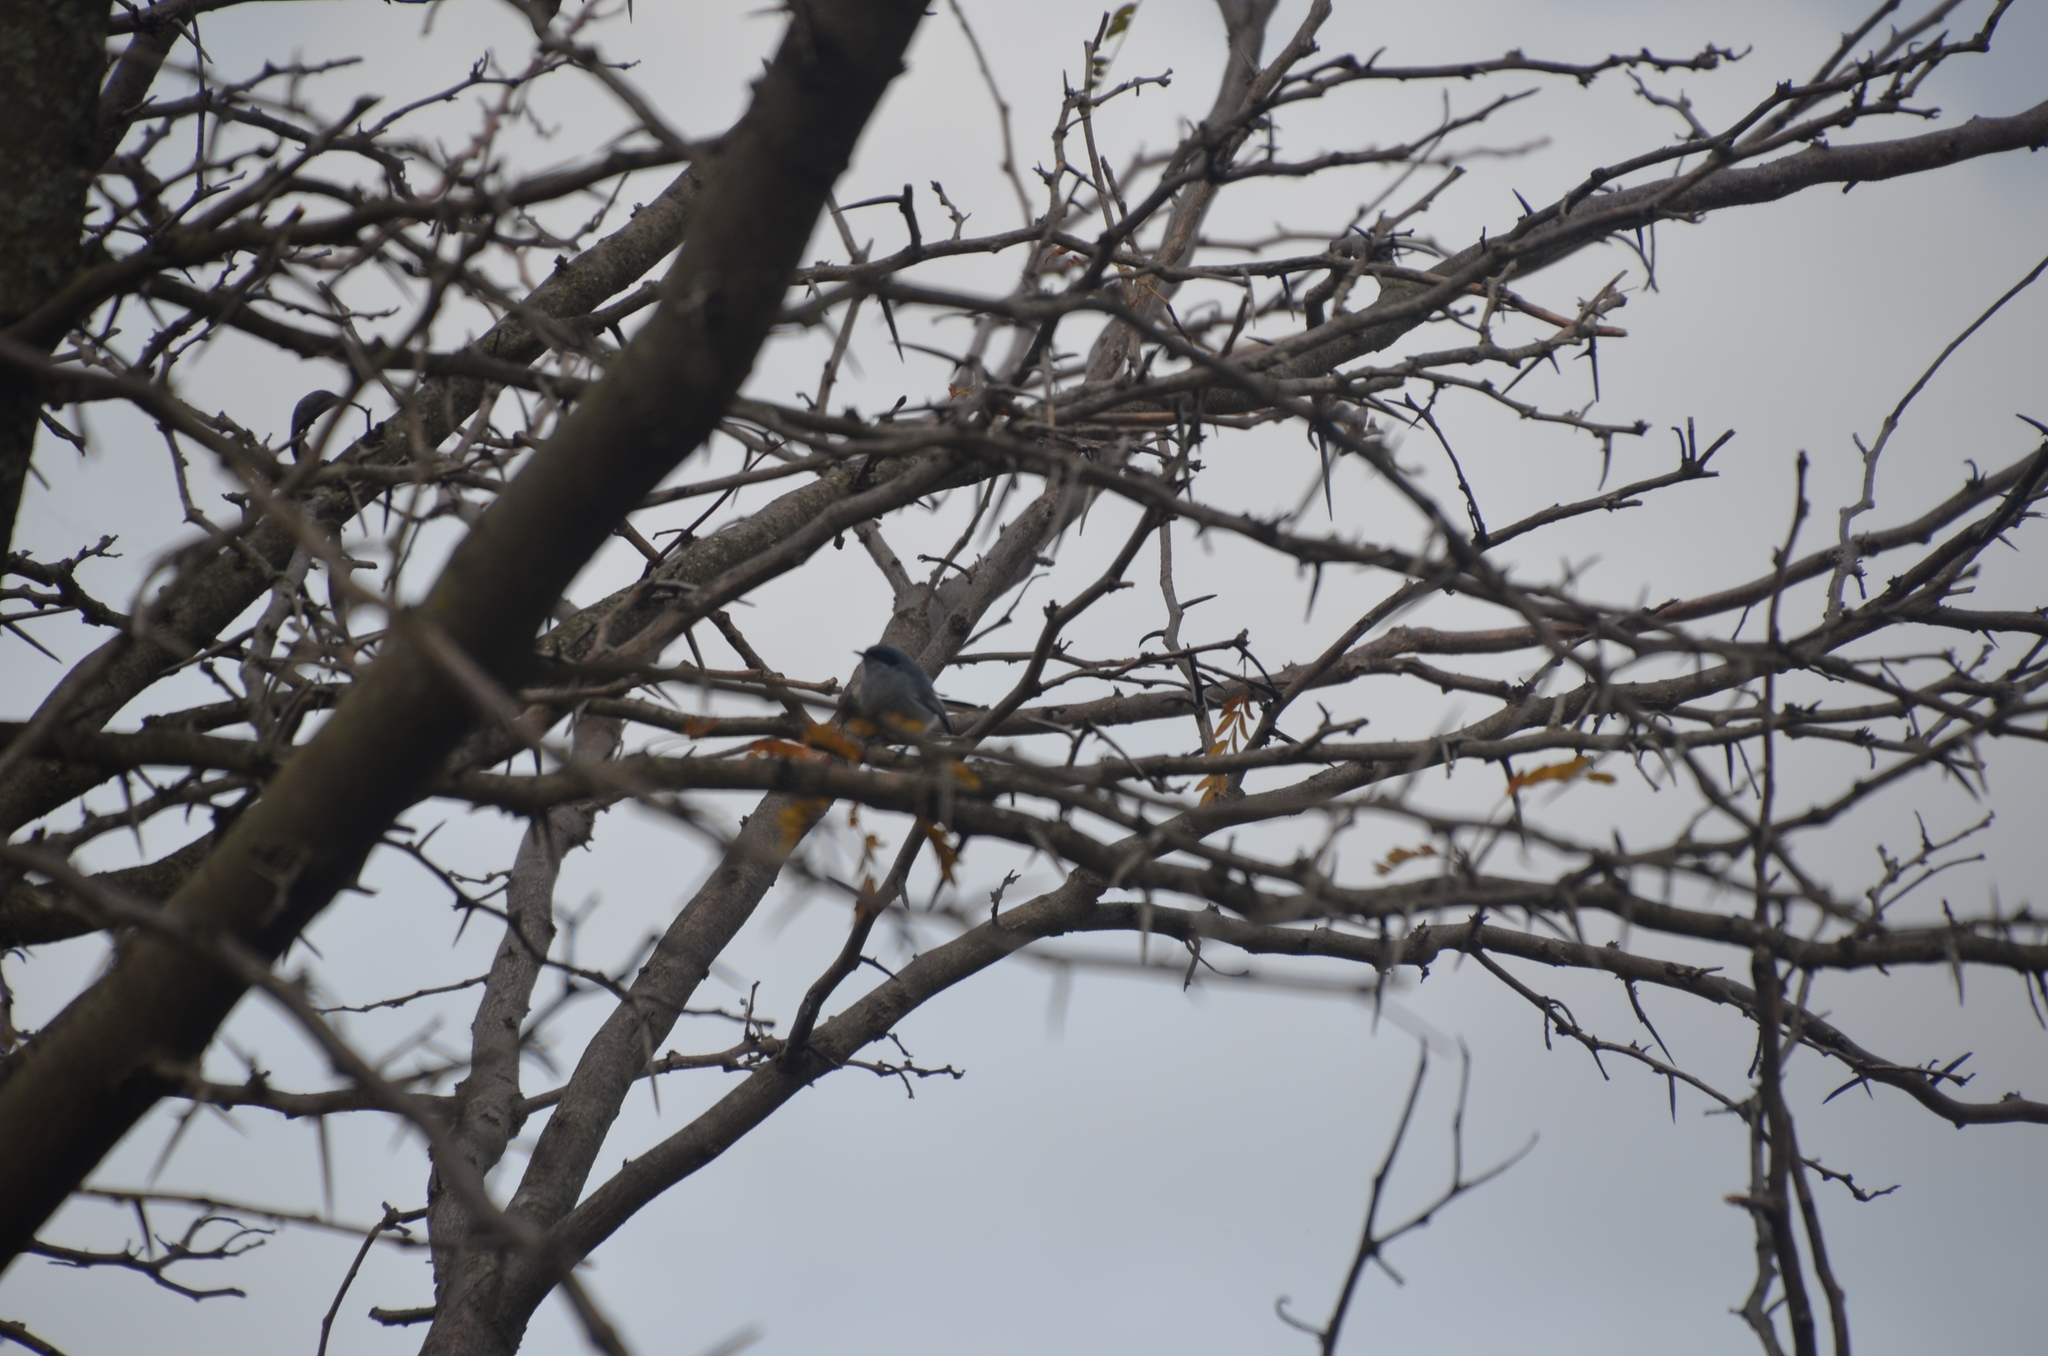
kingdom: Animalia
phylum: Chordata
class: Aves
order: Passeriformes
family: Polioptilidae
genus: Polioptila
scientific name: Polioptila dumicola
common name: Masked gnatcatcher
